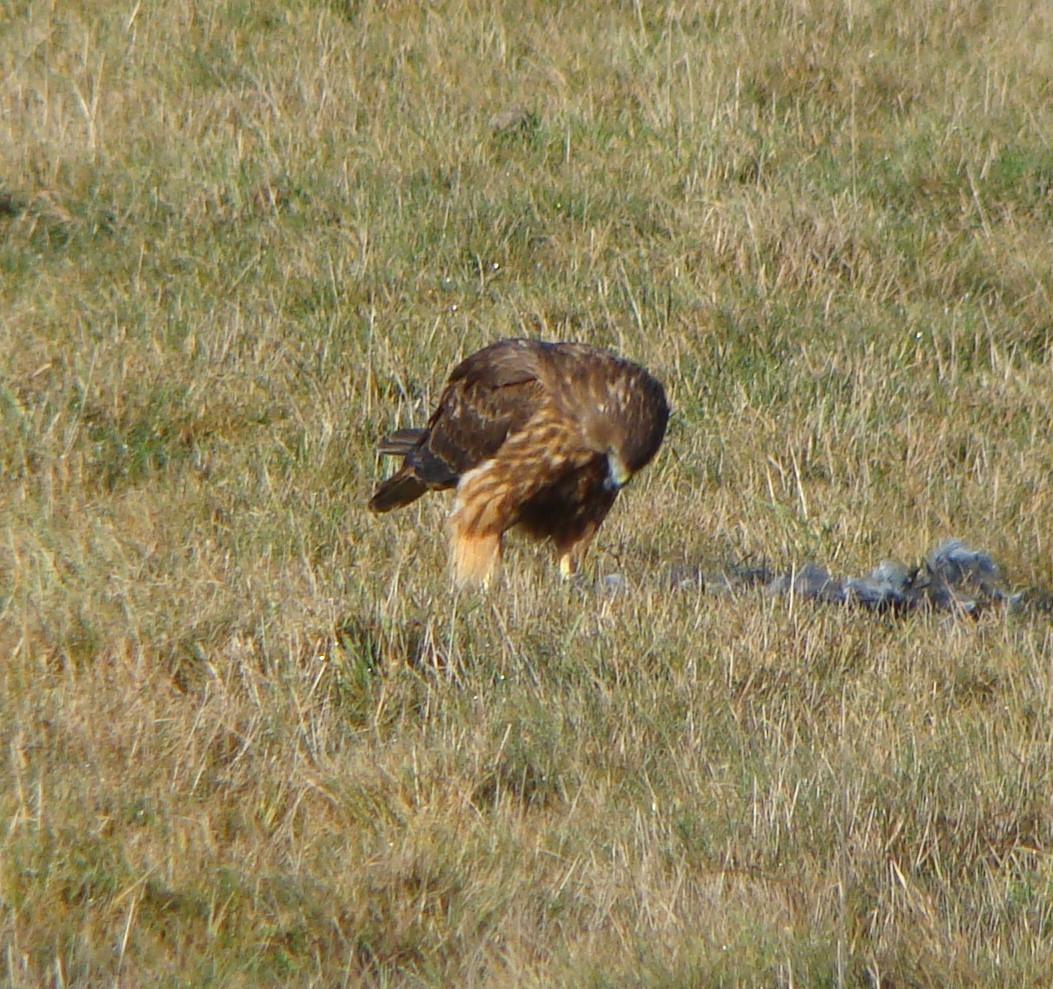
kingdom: Animalia
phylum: Chordata
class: Aves
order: Accipitriformes
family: Accipitridae
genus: Circus
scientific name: Circus approximans
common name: Swamp harrier
